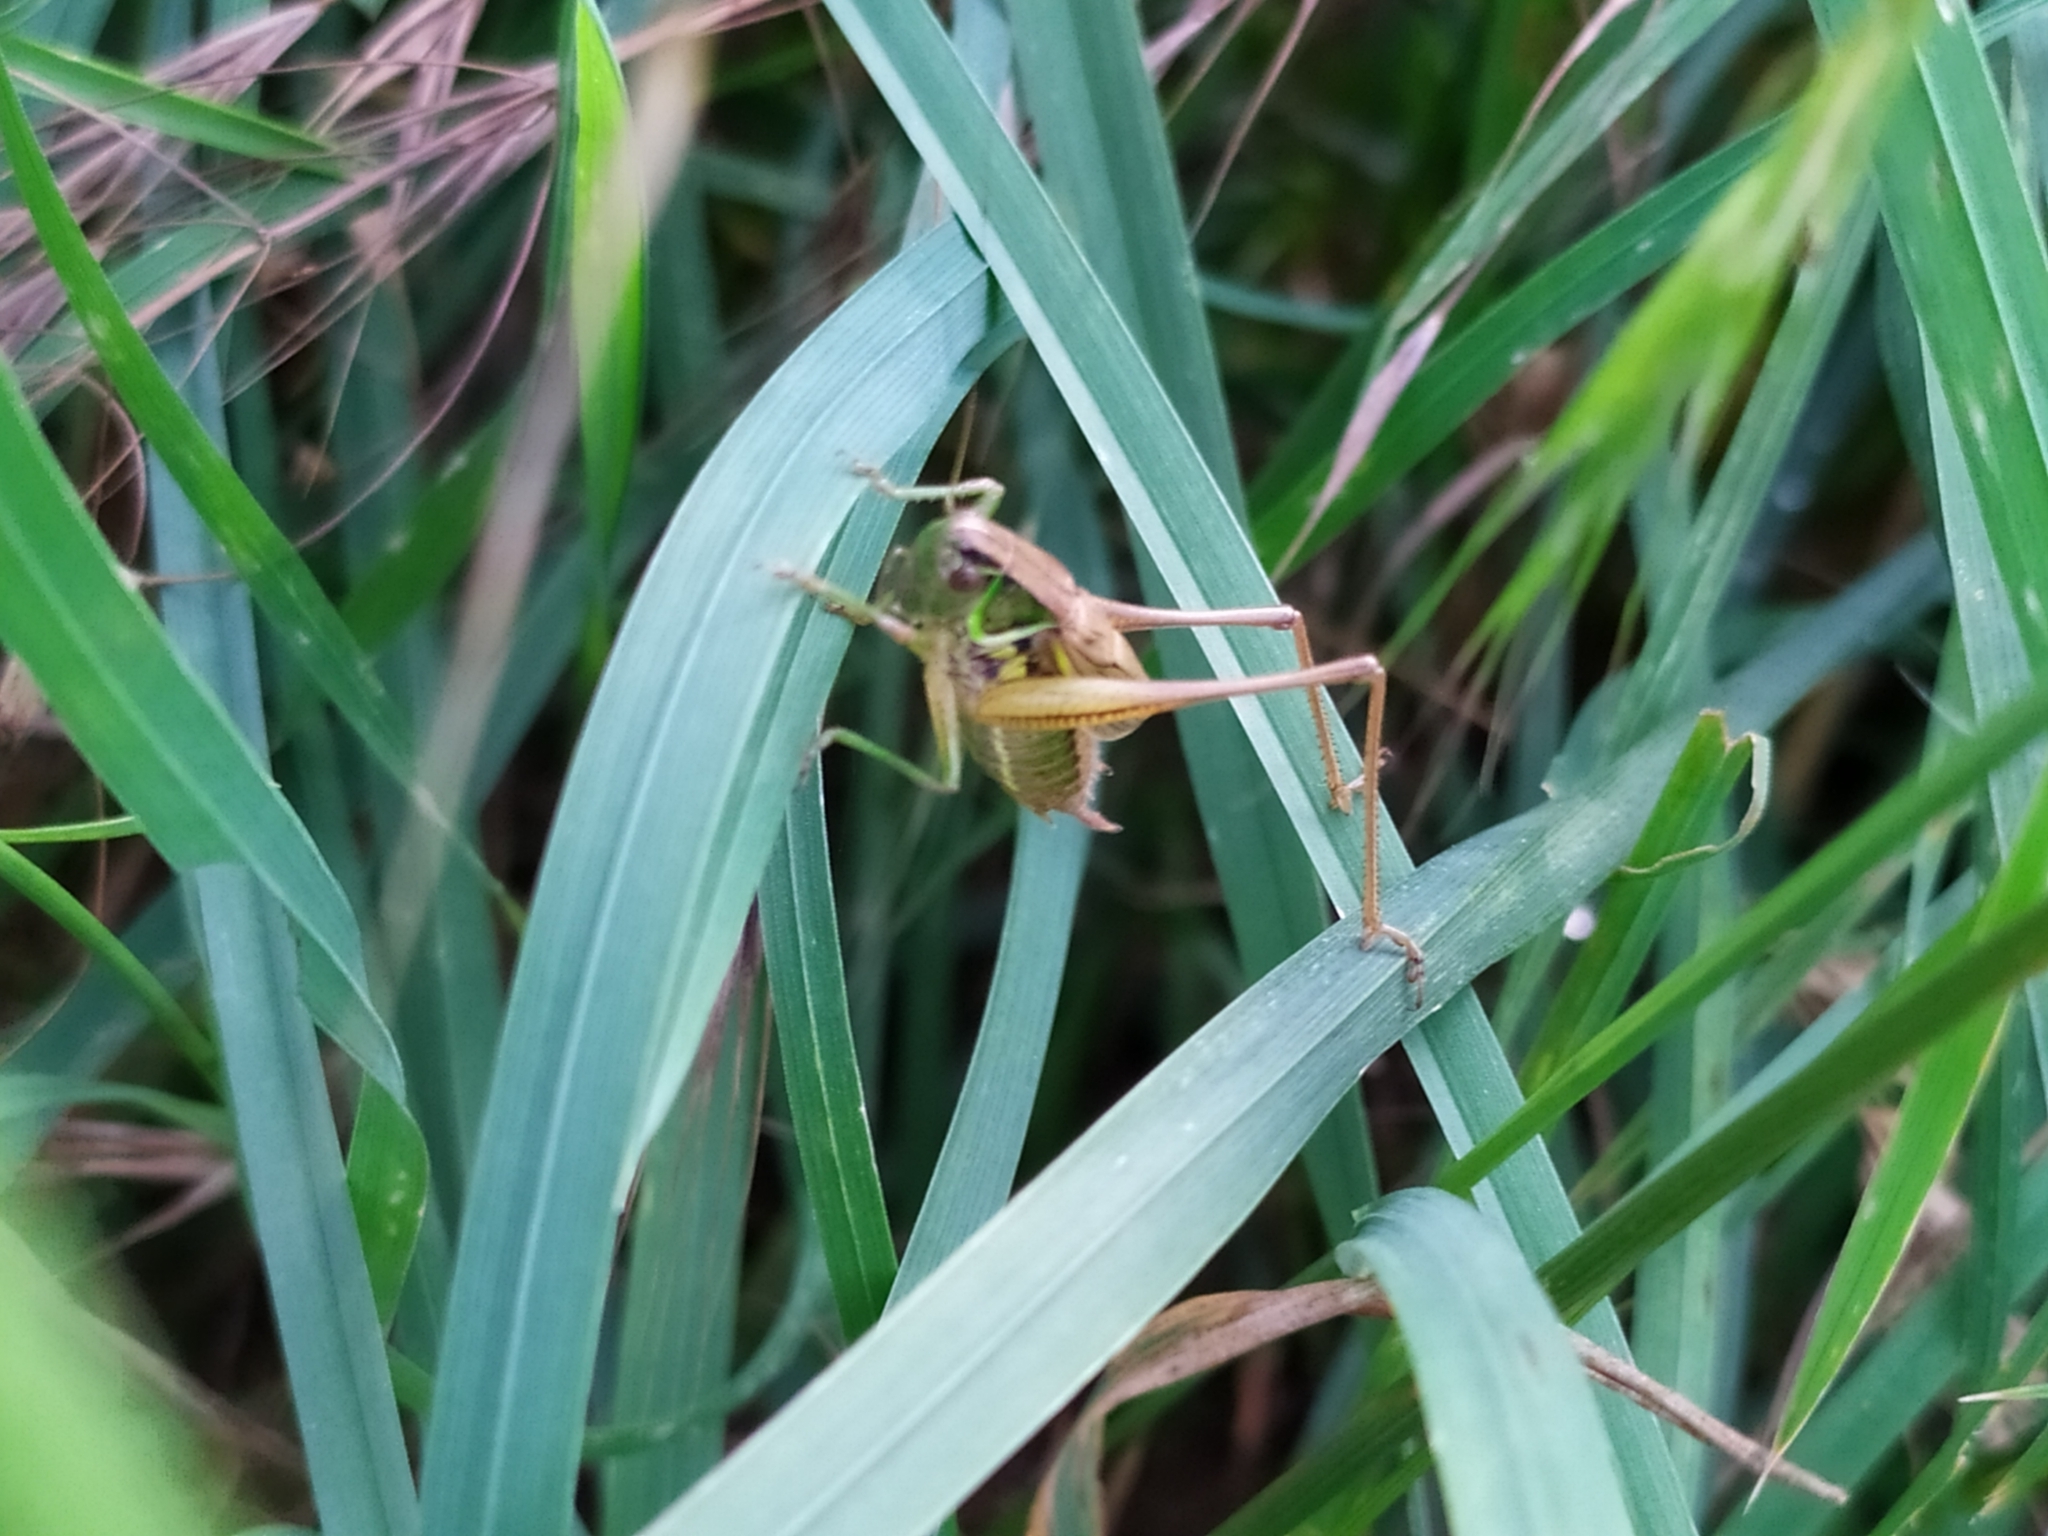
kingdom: Animalia
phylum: Arthropoda
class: Insecta
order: Orthoptera
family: Tettigoniidae
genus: Roeseliana
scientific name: Roeseliana roeselii
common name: Roesel's bush cricket
